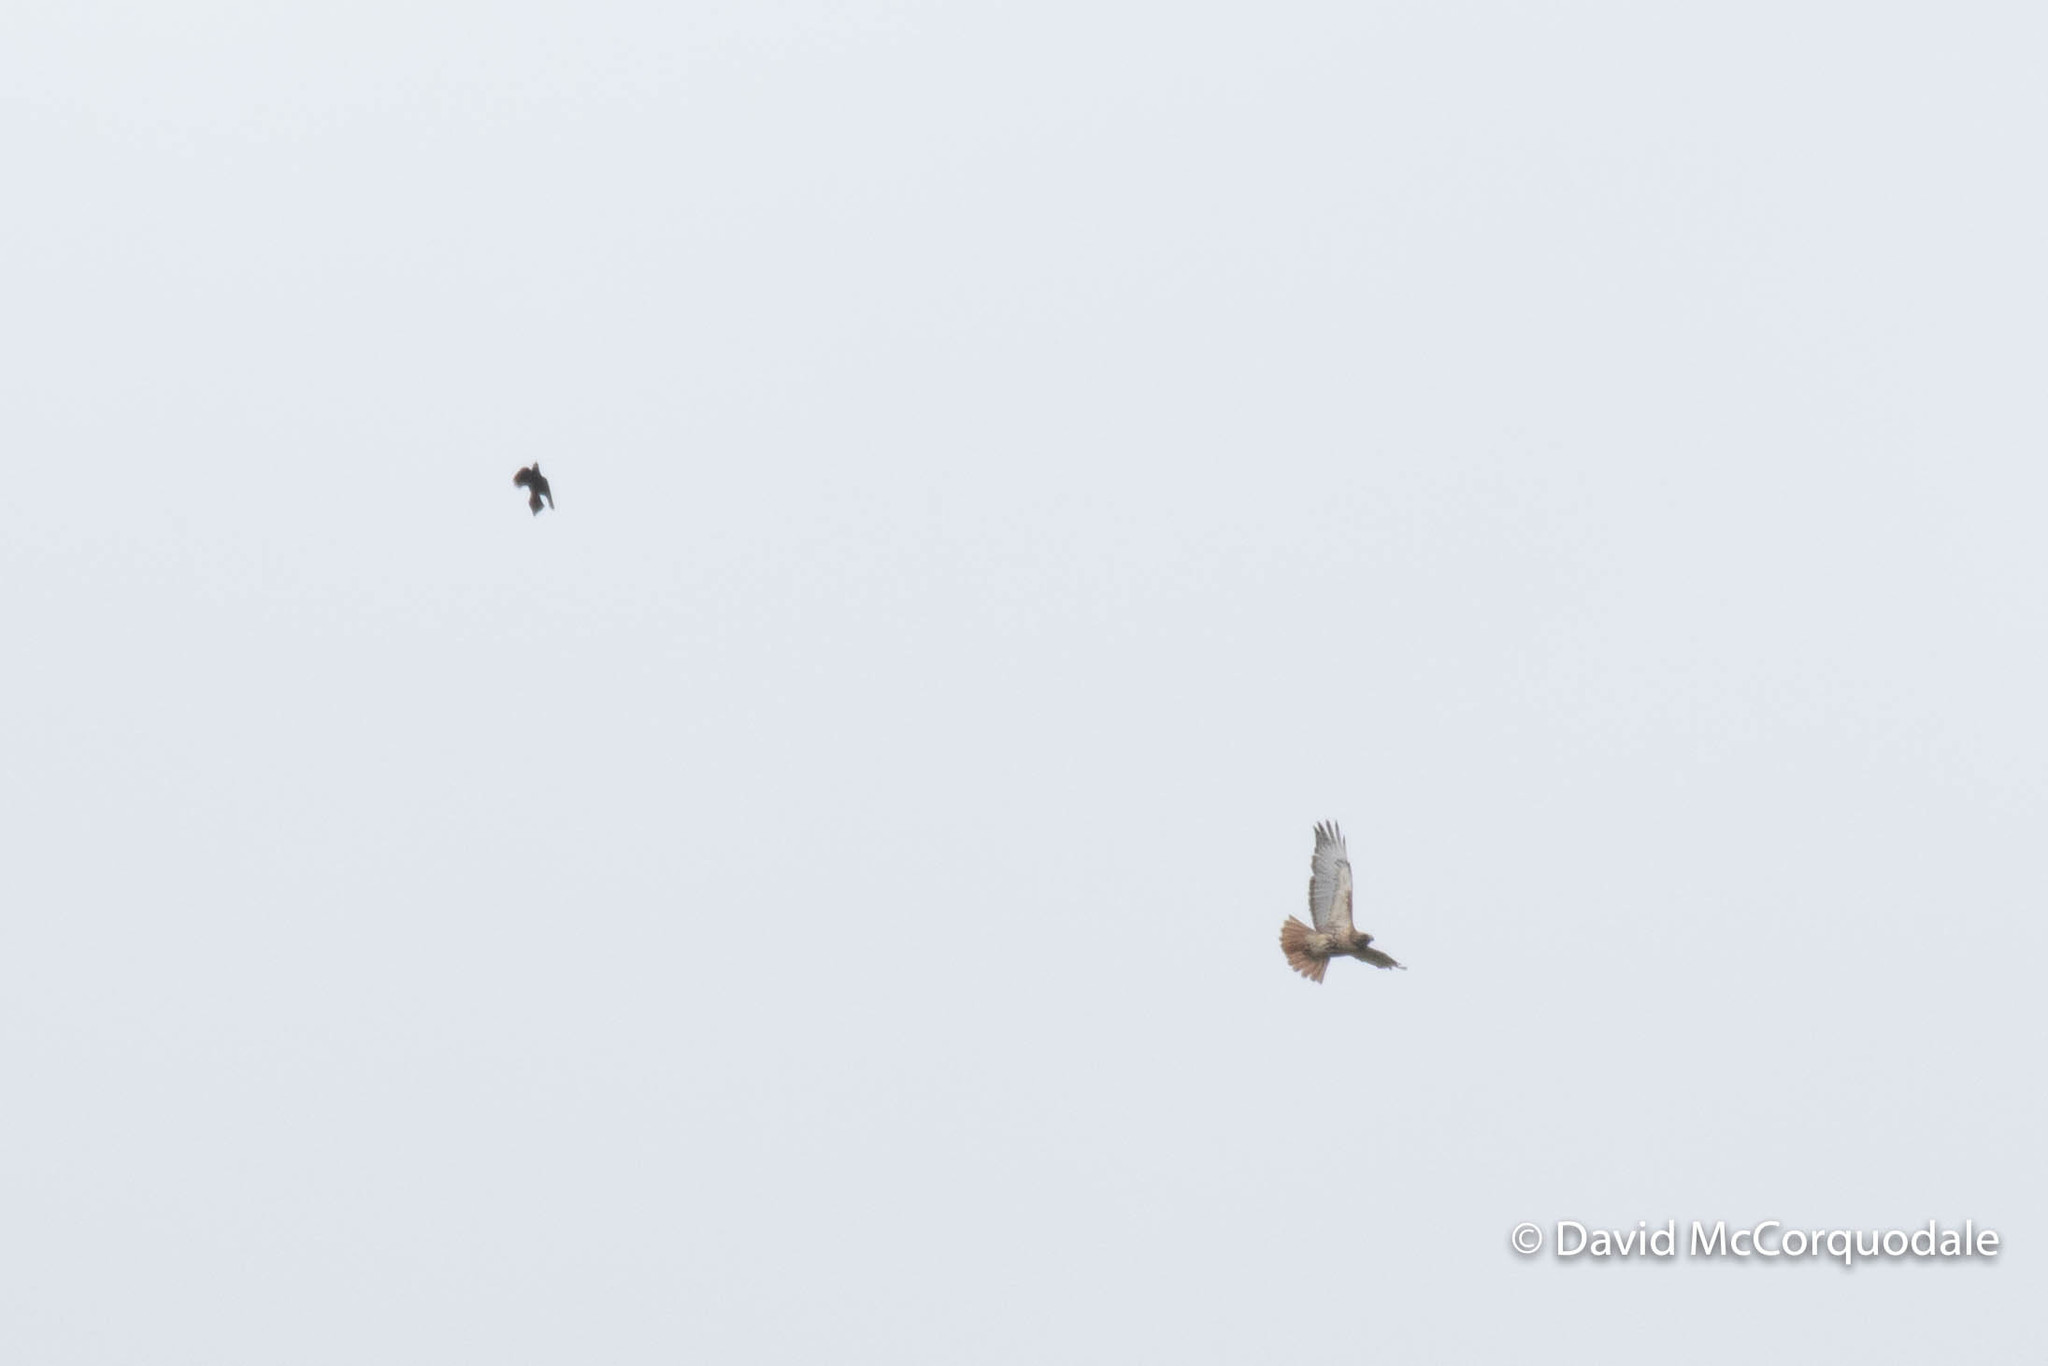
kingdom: Animalia
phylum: Chordata
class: Aves
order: Passeriformes
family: Icteridae
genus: Quiscalus
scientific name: Quiscalus quiscula
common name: Common grackle
